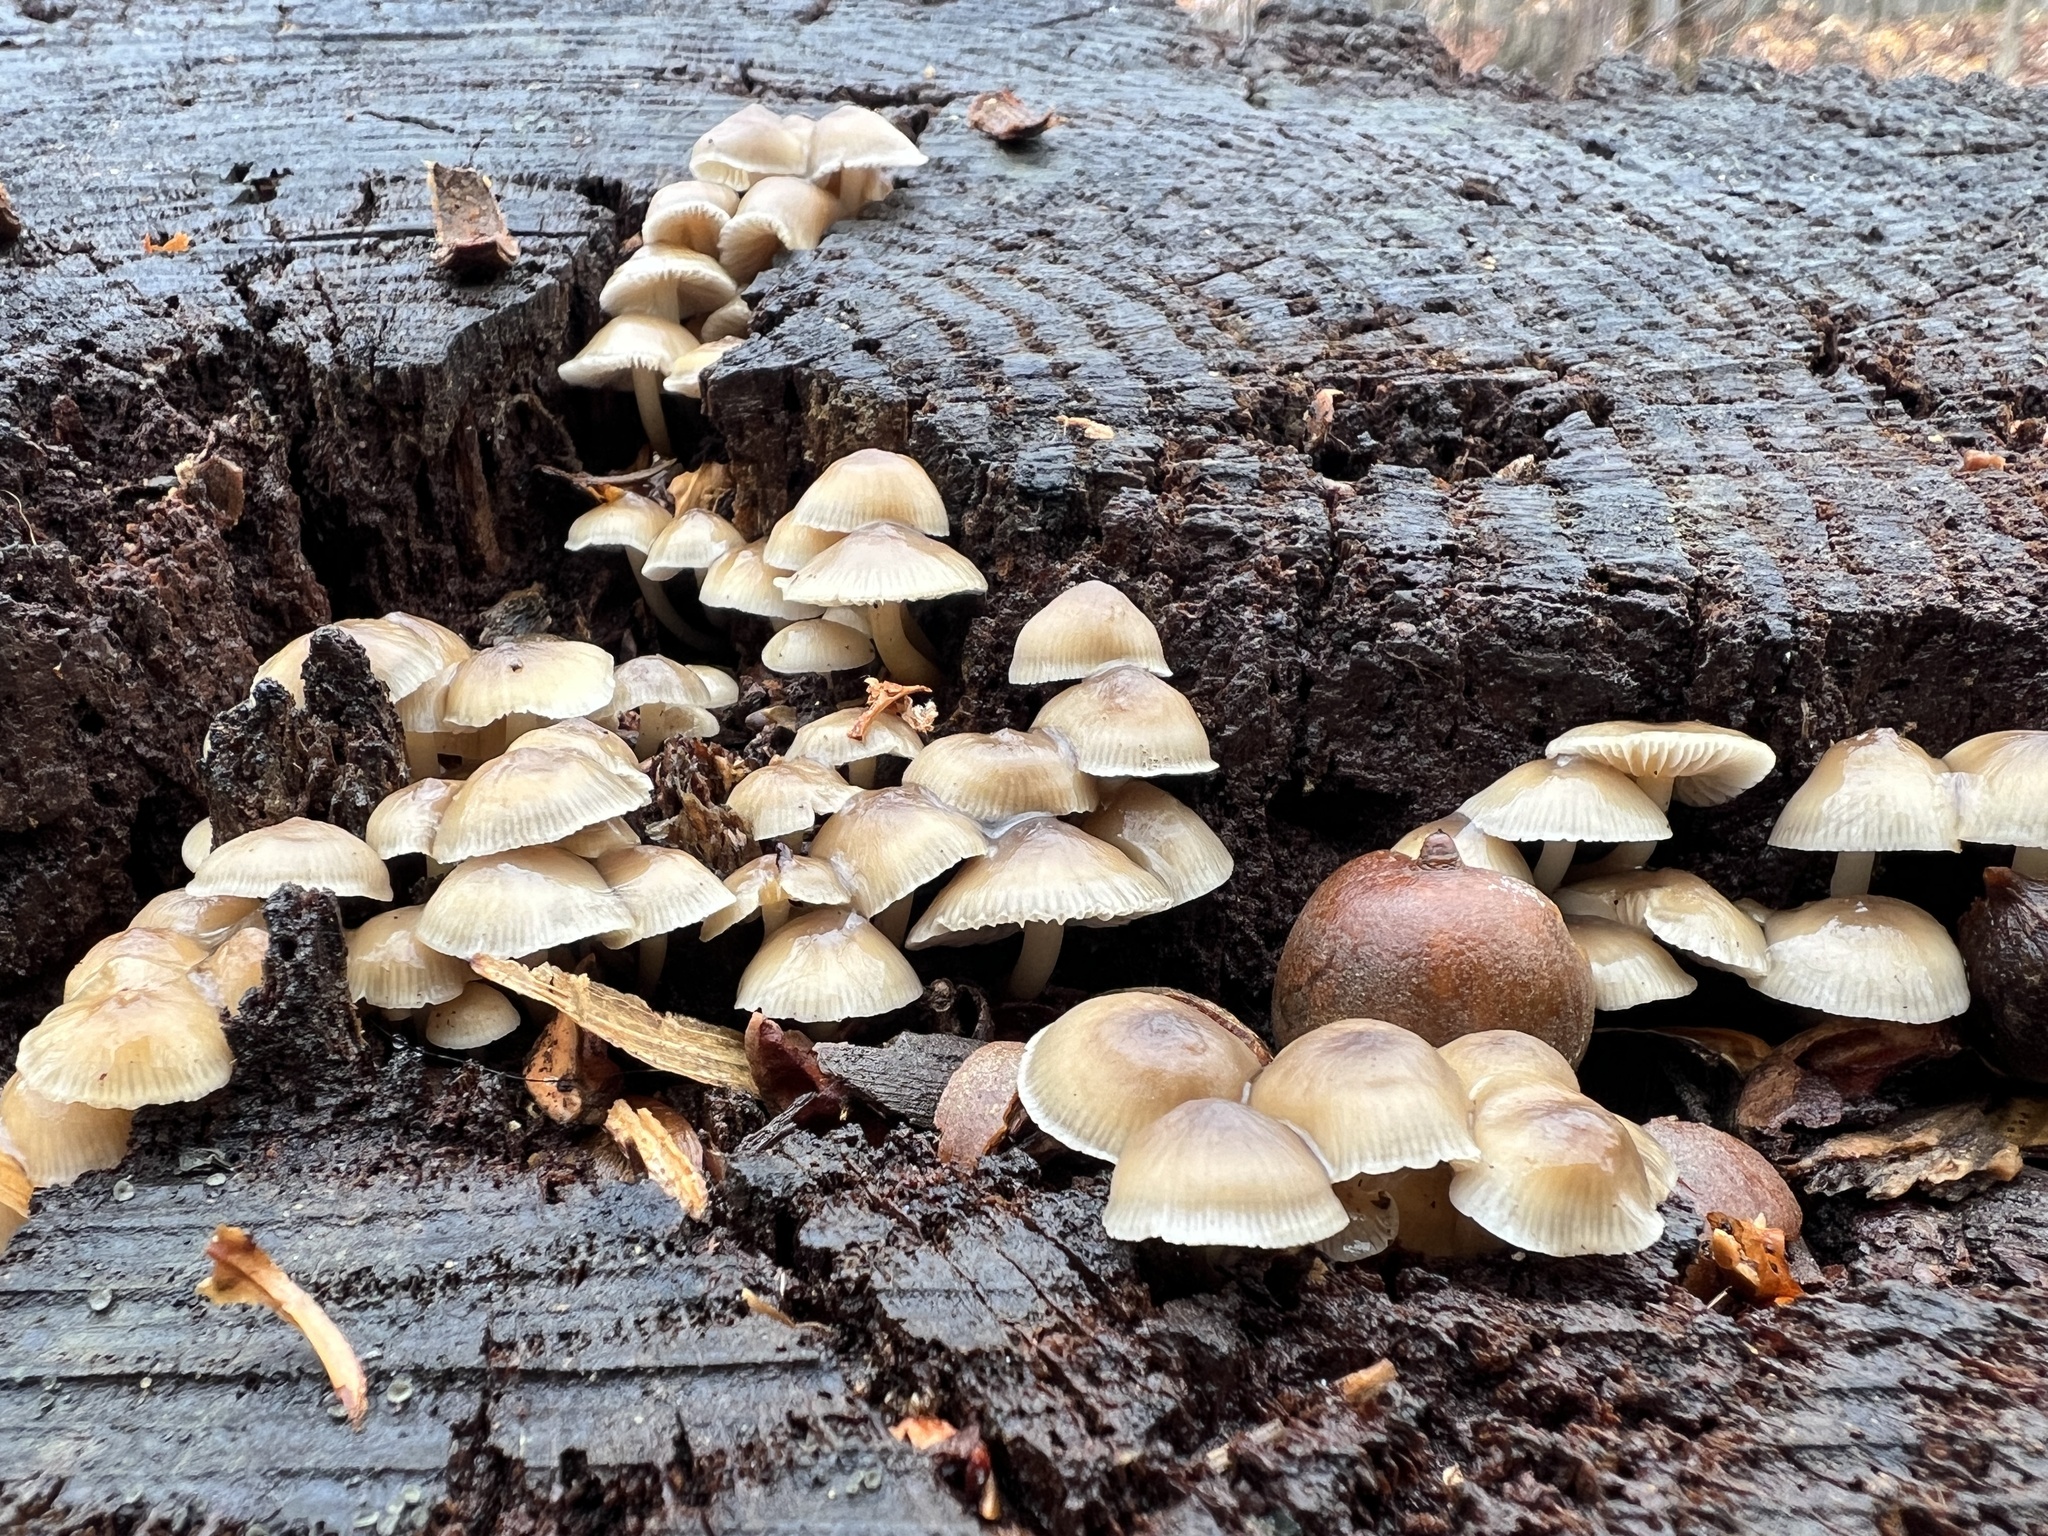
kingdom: Fungi
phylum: Basidiomycota
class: Agaricomycetes
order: Agaricales
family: Mycenaceae
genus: Mycena
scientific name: Mycena galericulata
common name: Bonnet mycena
